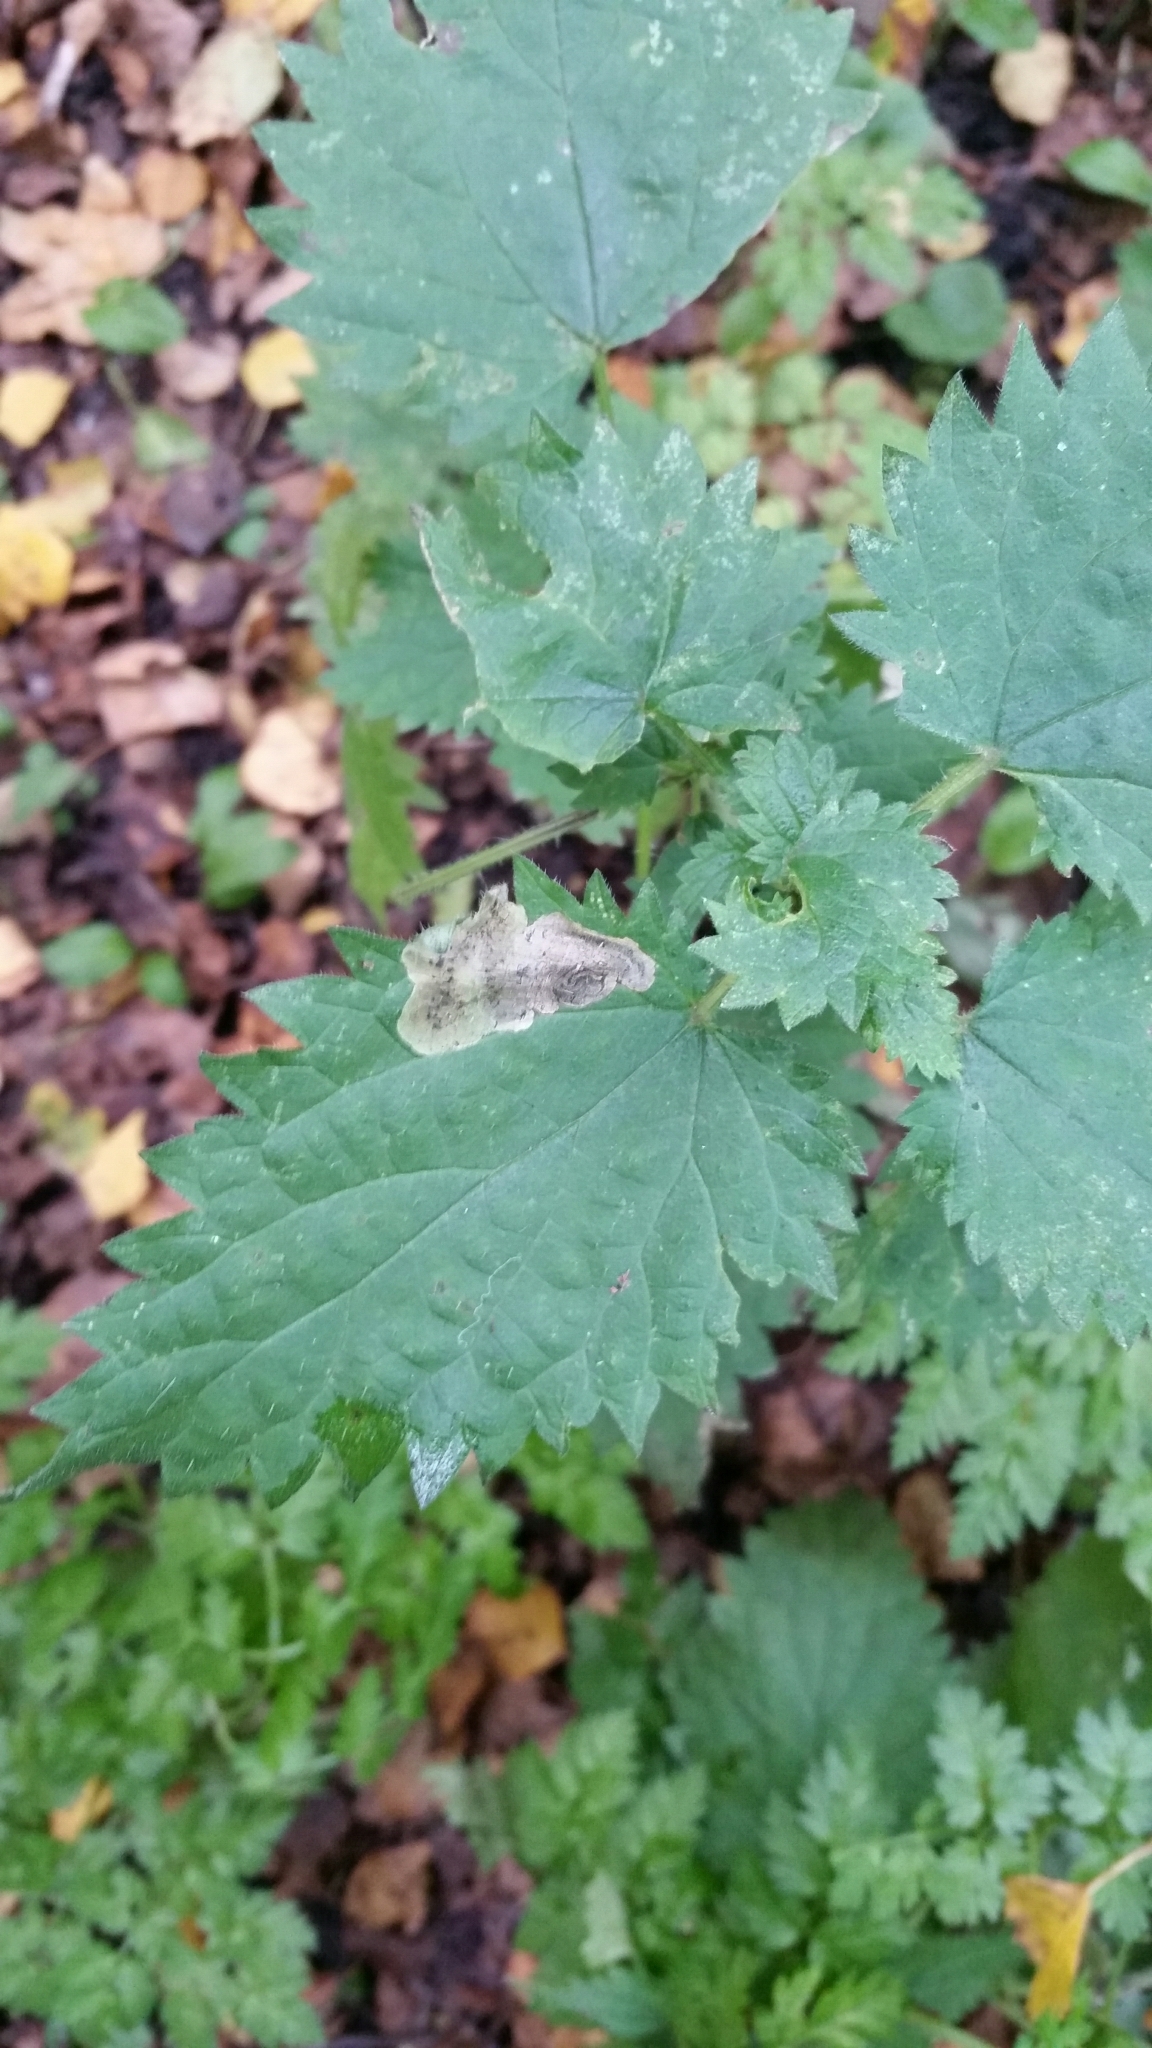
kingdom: Animalia
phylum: Arthropoda
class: Insecta
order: Diptera
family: Agromyzidae
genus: Agromyza
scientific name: Agromyza anthracina
